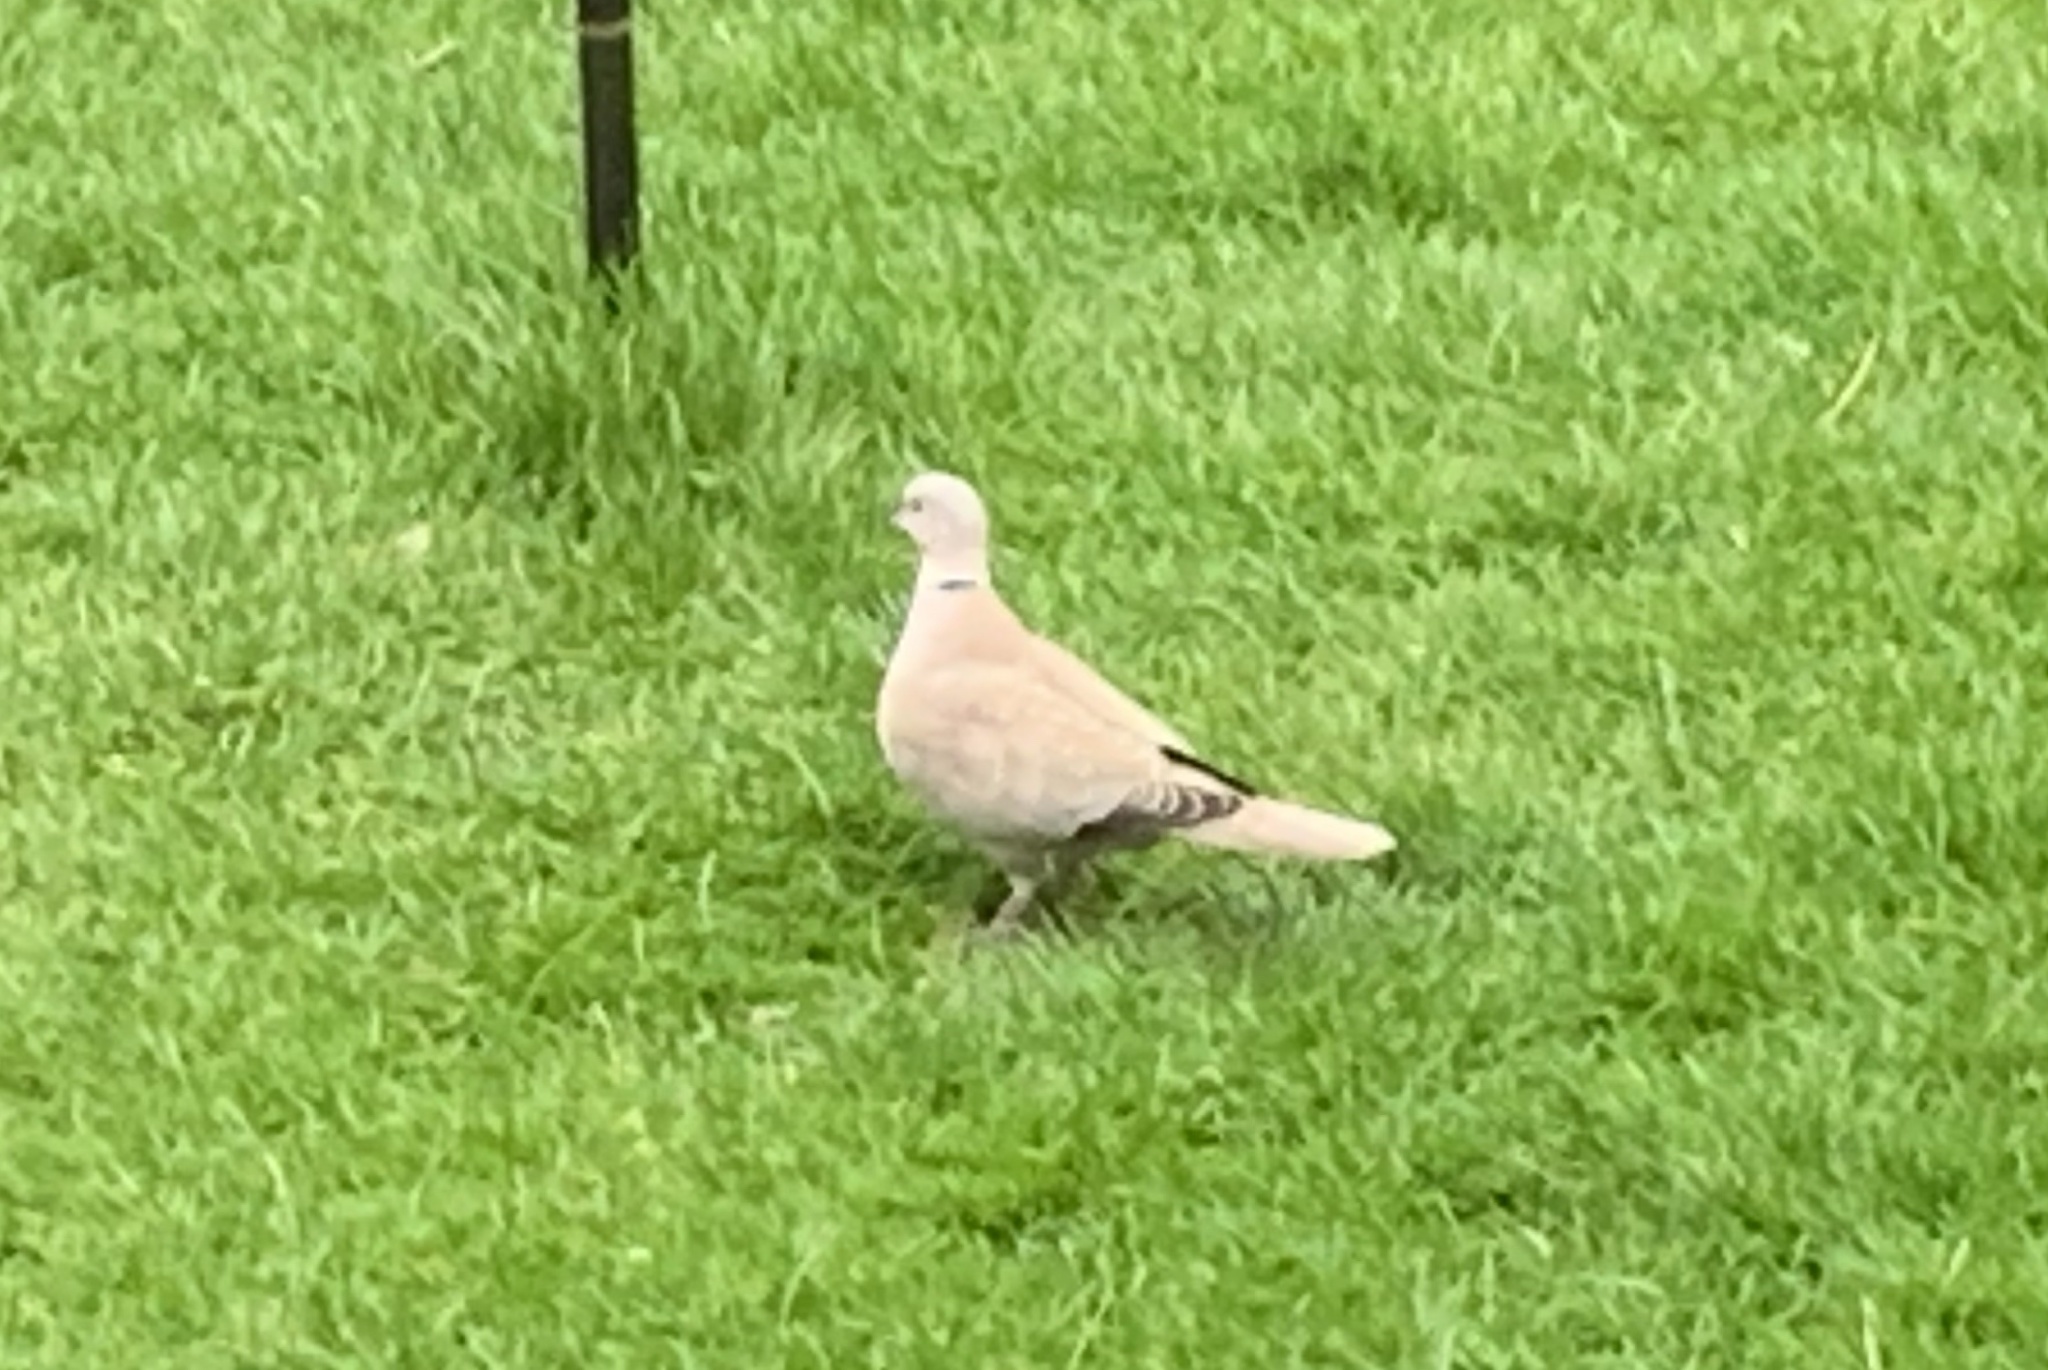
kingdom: Animalia
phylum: Chordata
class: Aves
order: Columbiformes
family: Columbidae
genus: Streptopelia
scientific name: Streptopelia decaocto
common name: Eurasian collared dove
